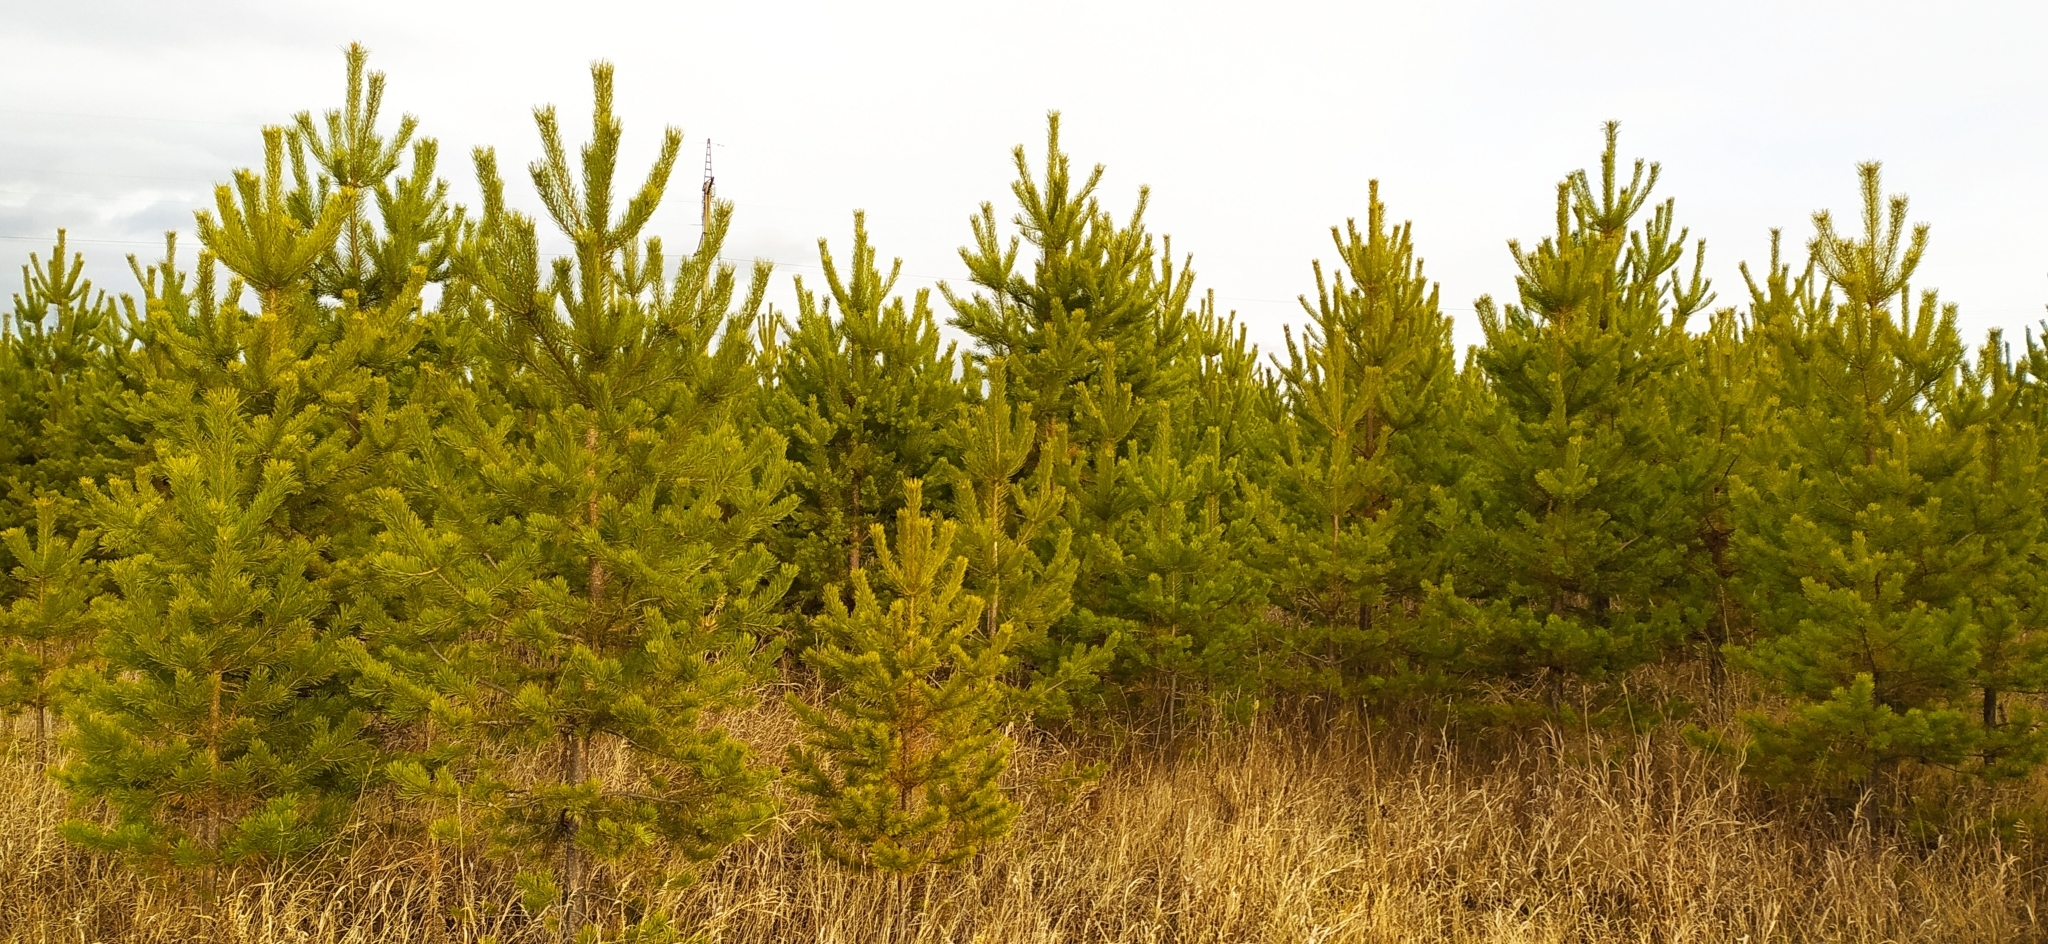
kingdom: Plantae
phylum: Tracheophyta
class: Pinopsida
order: Pinales
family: Pinaceae
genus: Pinus
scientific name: Pinus sylvestris
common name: Scots pine
